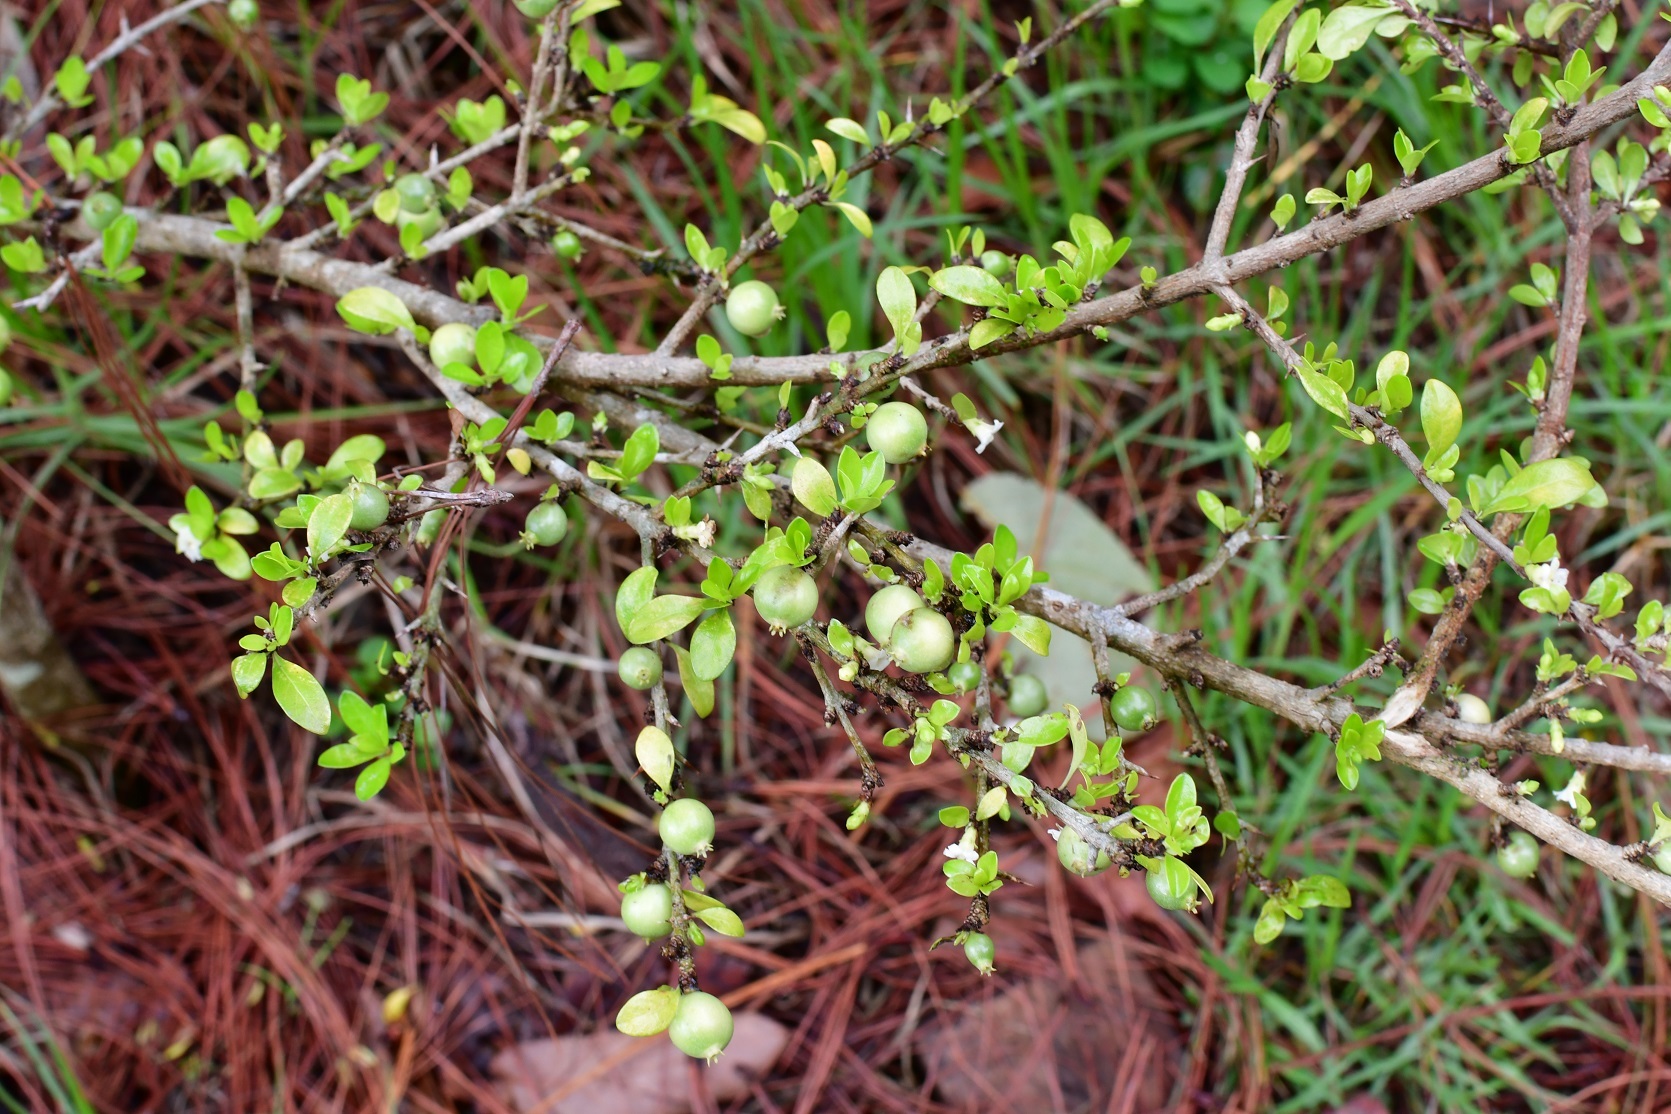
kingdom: Plantae
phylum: Tracheophyta
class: Magnoliopsida
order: Gentianales
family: Rubiaceae
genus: Randia
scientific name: Randia chiapensis
